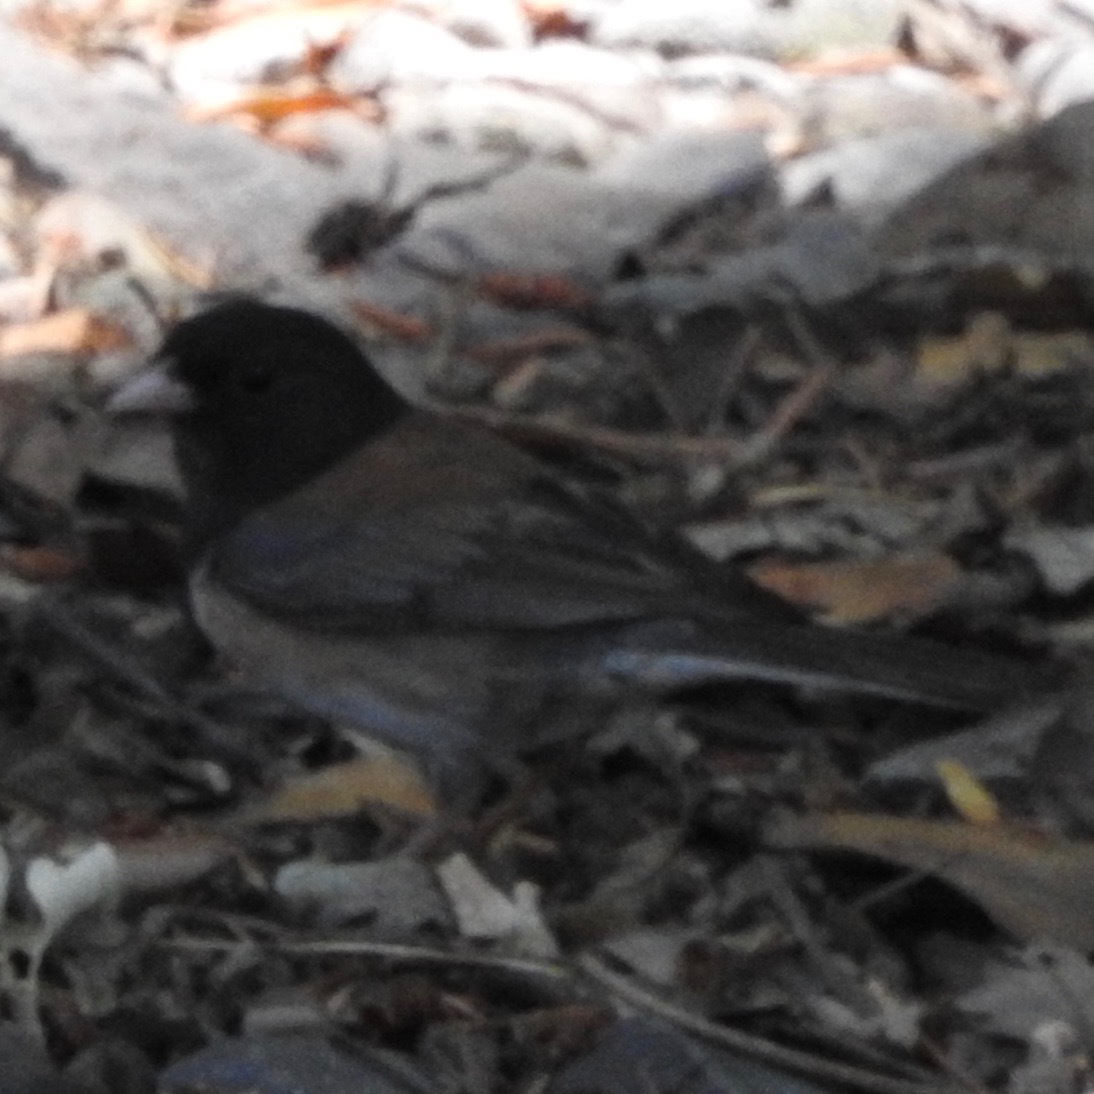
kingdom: Animalia
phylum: Chordata
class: Aves
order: Passeriformes
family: Passerellidae
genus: Junco
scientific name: Junco hyemalis
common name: Dark-eyed junco
